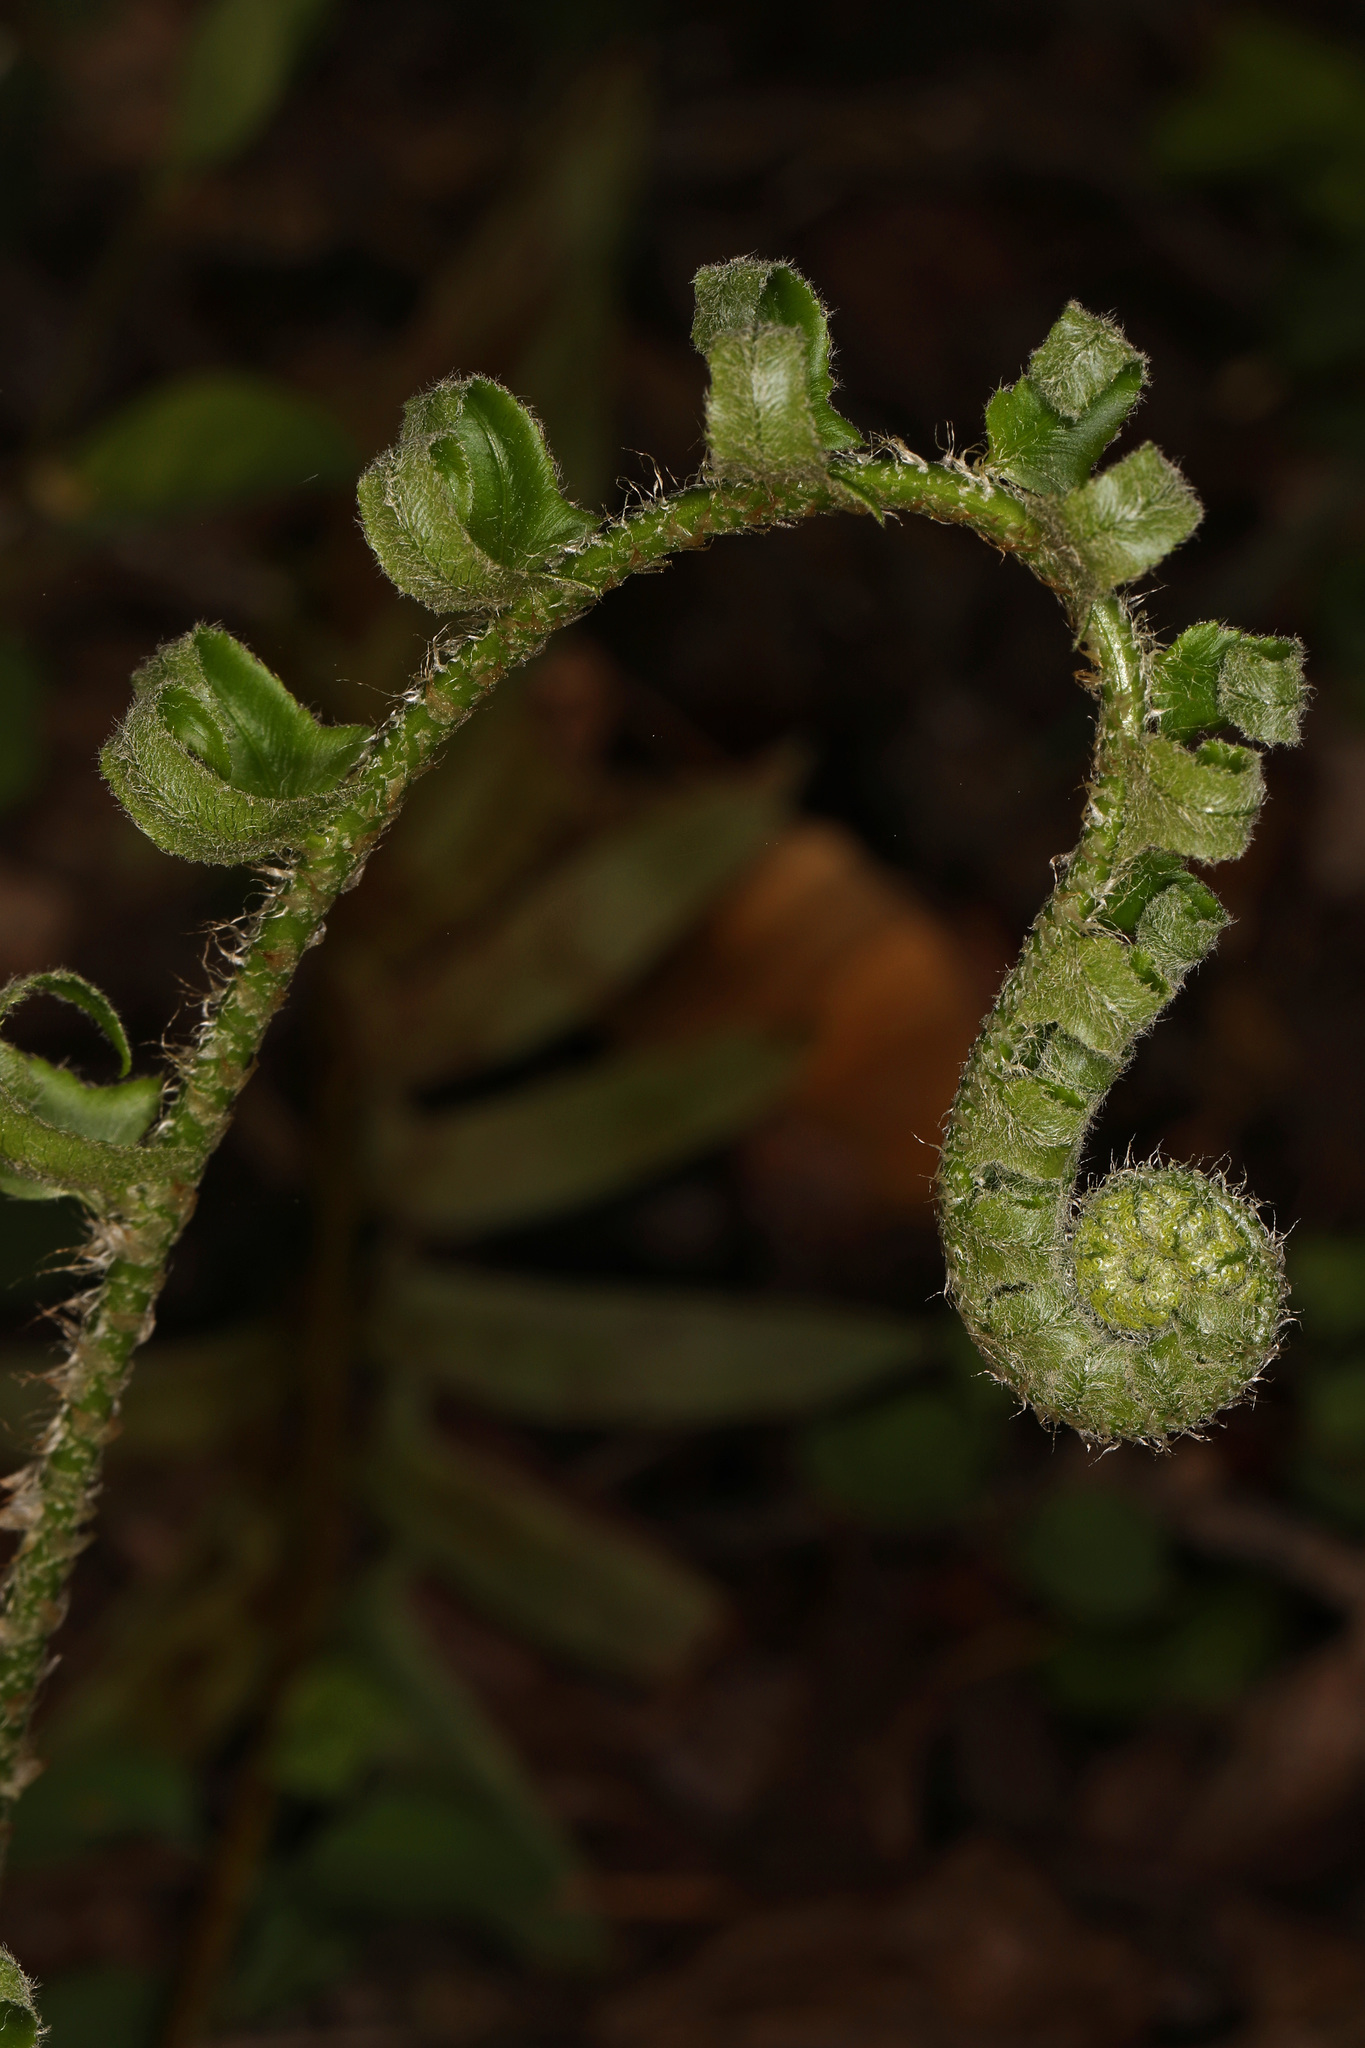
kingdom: Plantae
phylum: Tracheophyta
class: Polypodiopsida
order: Polypodiales
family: Dryopteridaceae
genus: Polystichum
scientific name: Polystichum acrostichoides
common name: Christmas fern
